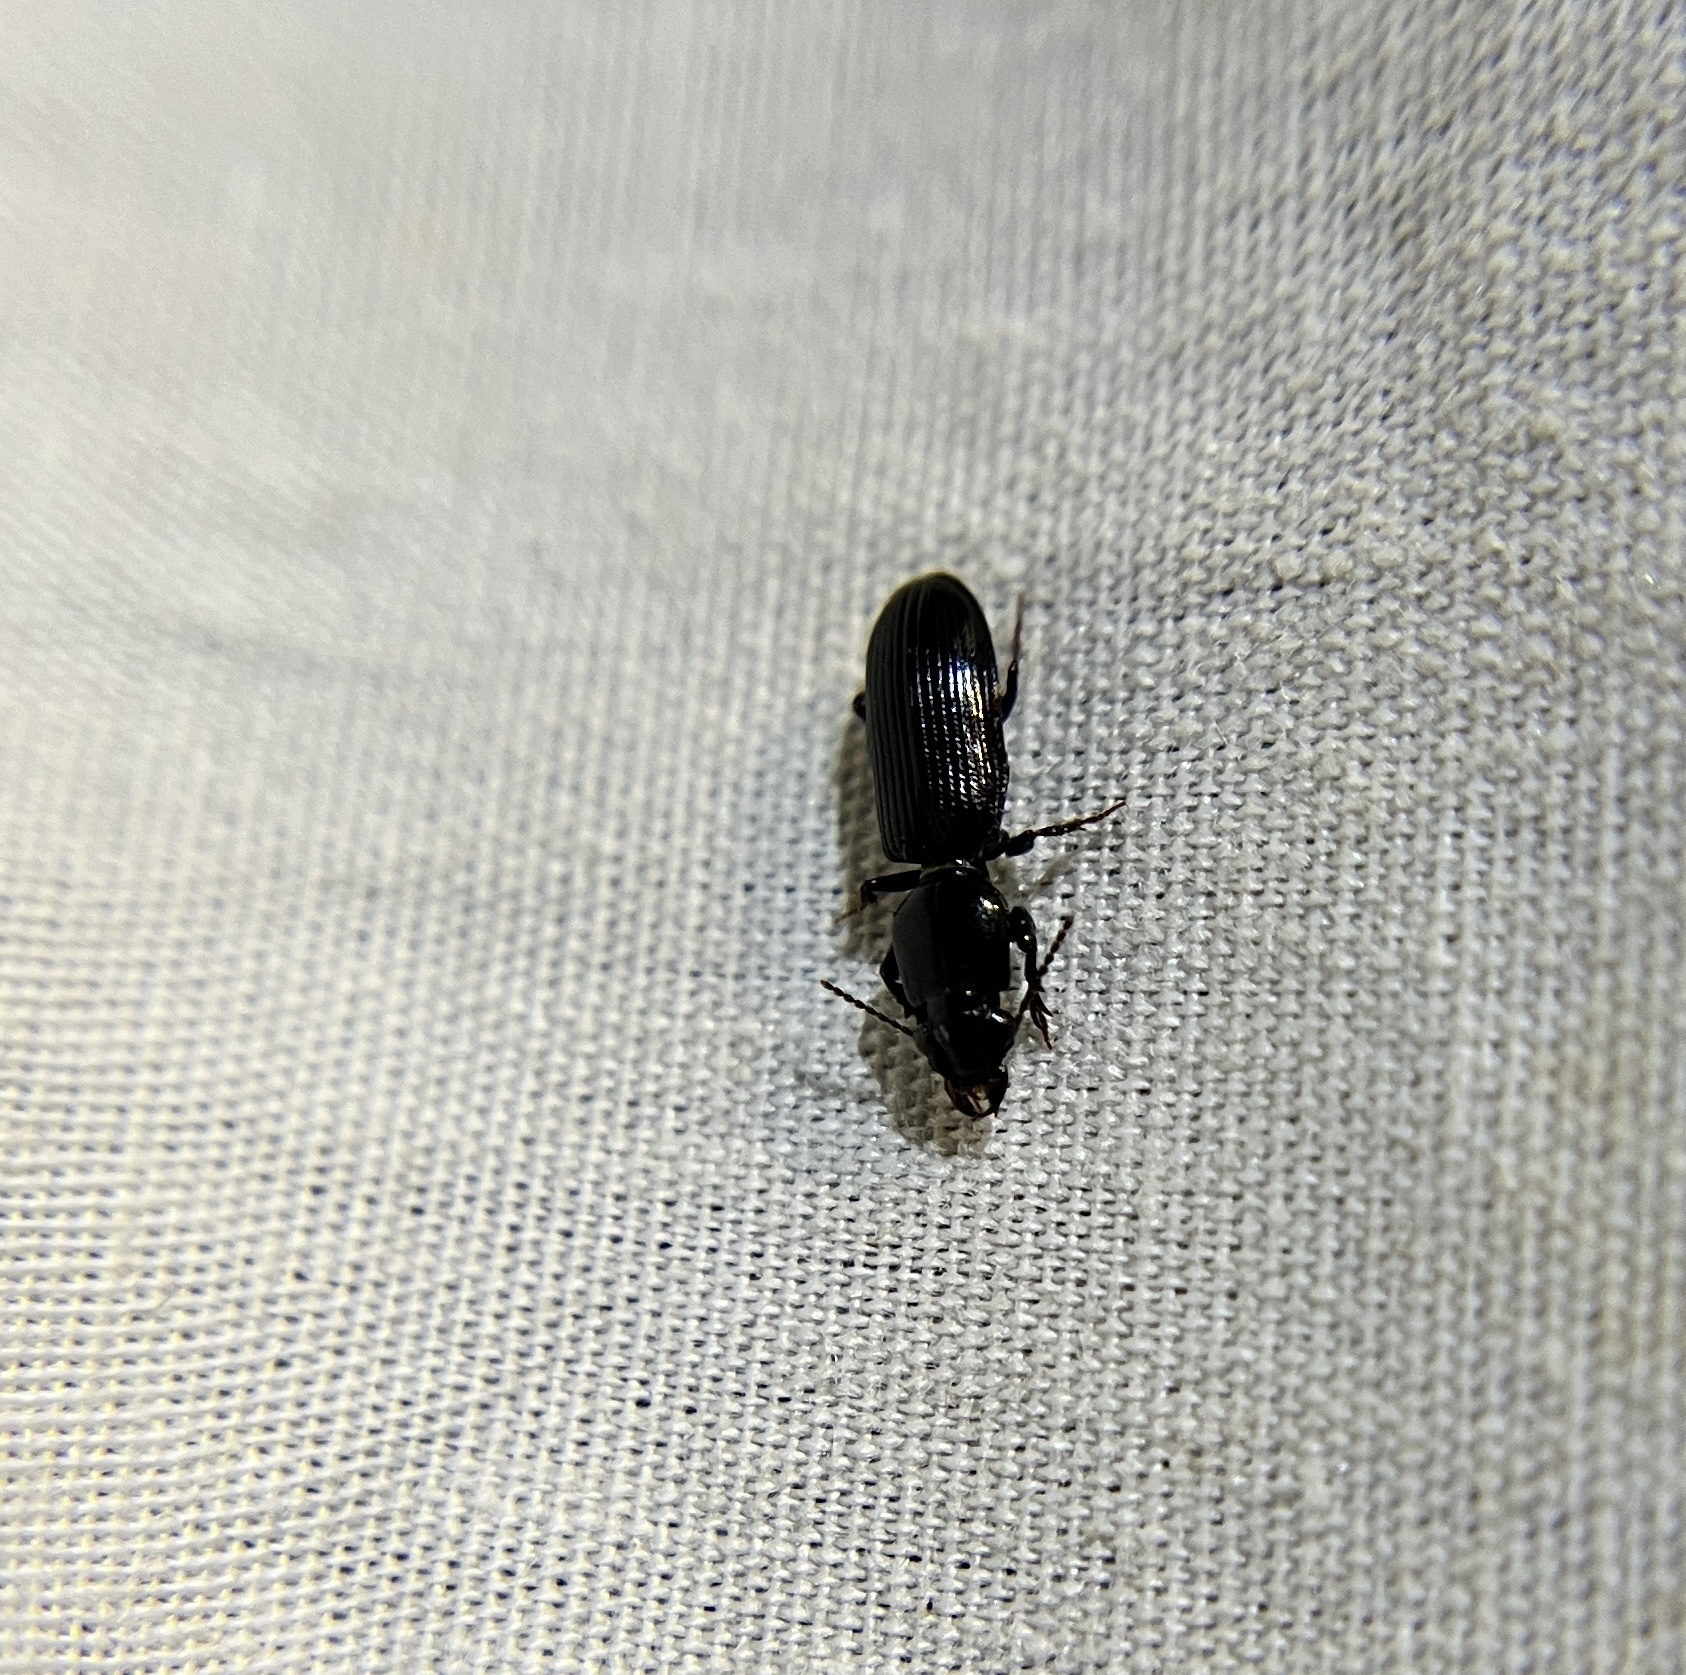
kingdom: Animalia
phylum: Arthropoda
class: Insecta
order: Coleoptera
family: Carabidae
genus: Semiclivina
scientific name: Semiclivina dentipes
